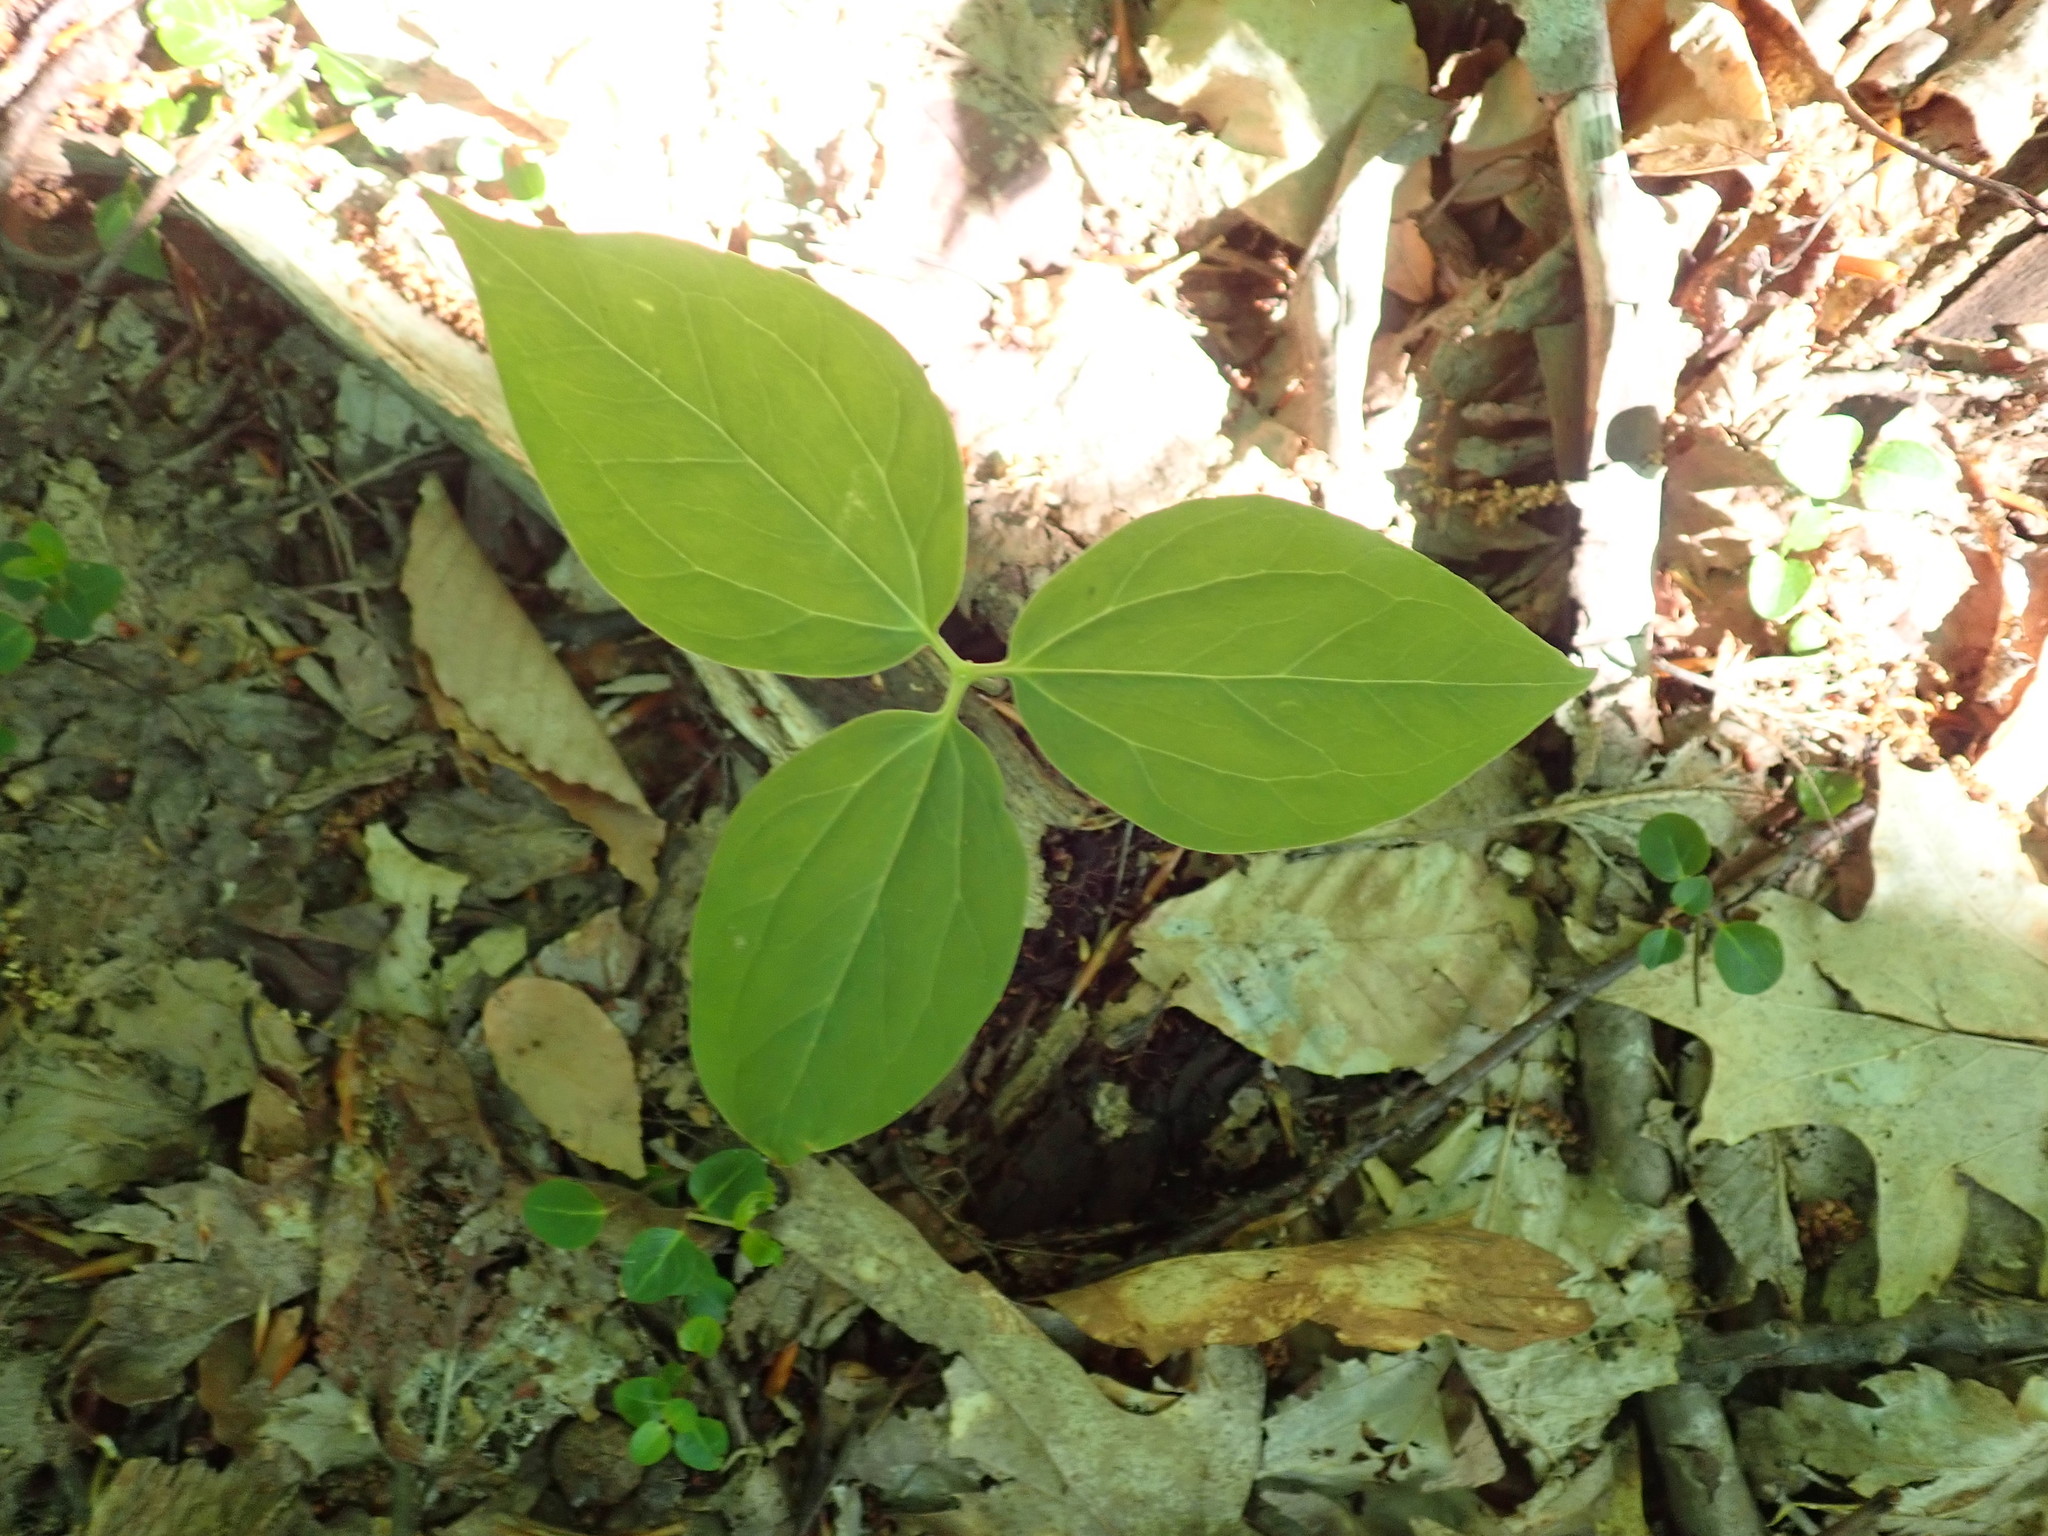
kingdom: Plantae
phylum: Tracheophyta
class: Liliopsida
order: Liliales
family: Melanthiaceae
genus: Trillium
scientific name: Trillium undulatum
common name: Paint trillium
